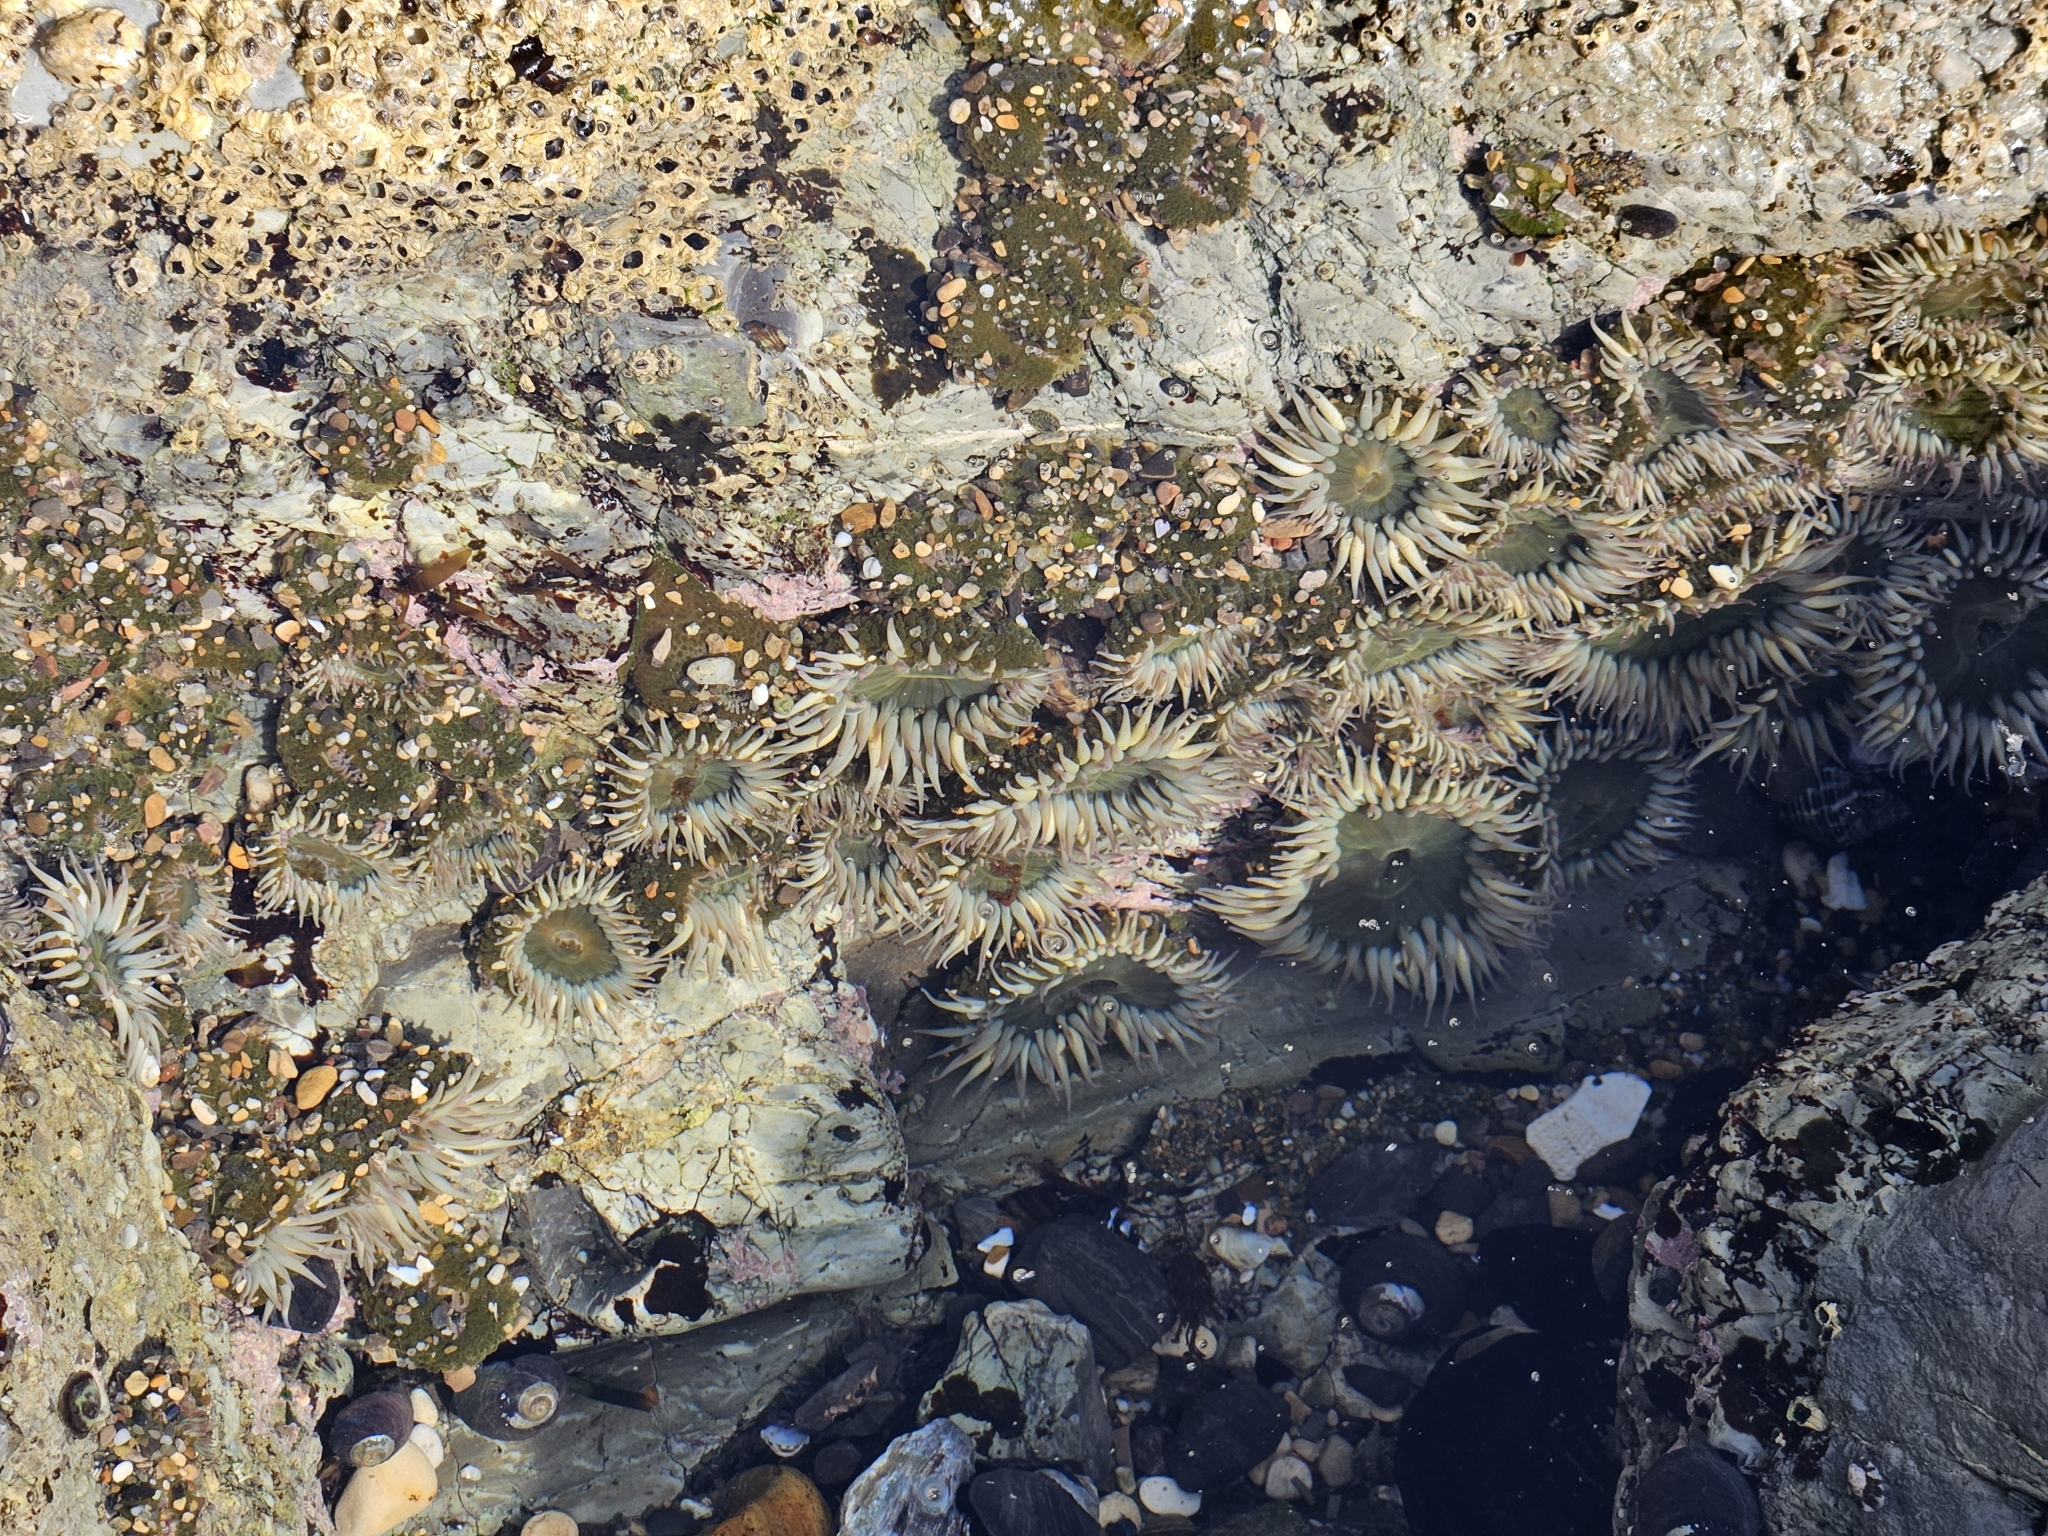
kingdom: Animalia
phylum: Cnidaria
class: Anthozoa
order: Actiniaria
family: Actiniidae
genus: Anthopleura
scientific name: Anthopleura elegantissima
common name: Clonal anemone
